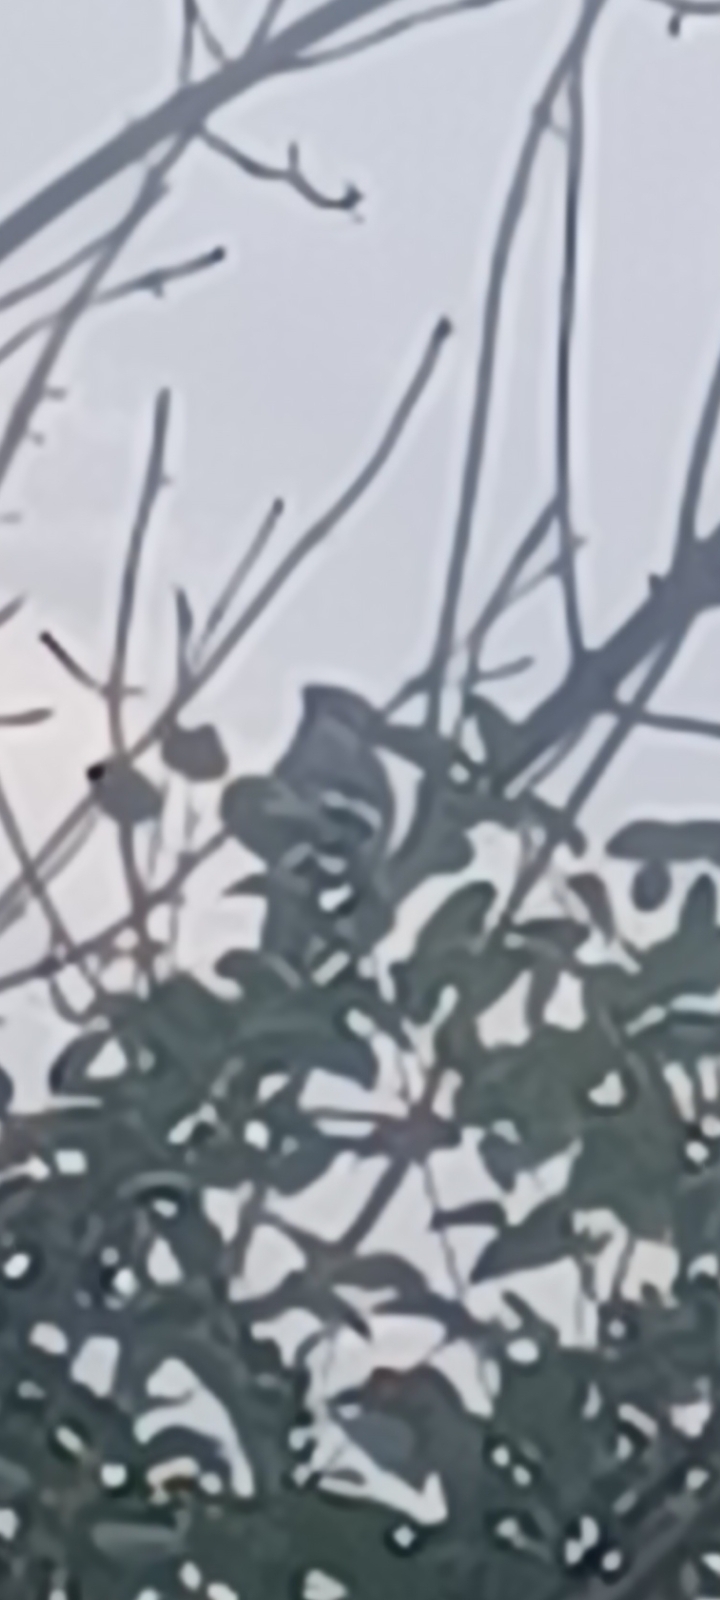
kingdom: Animalia
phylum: Chordata
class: Aves
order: Passeriformes
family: Corvidae
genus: Cyanocitta
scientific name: Cyanocitta cristata
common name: Blue jay
